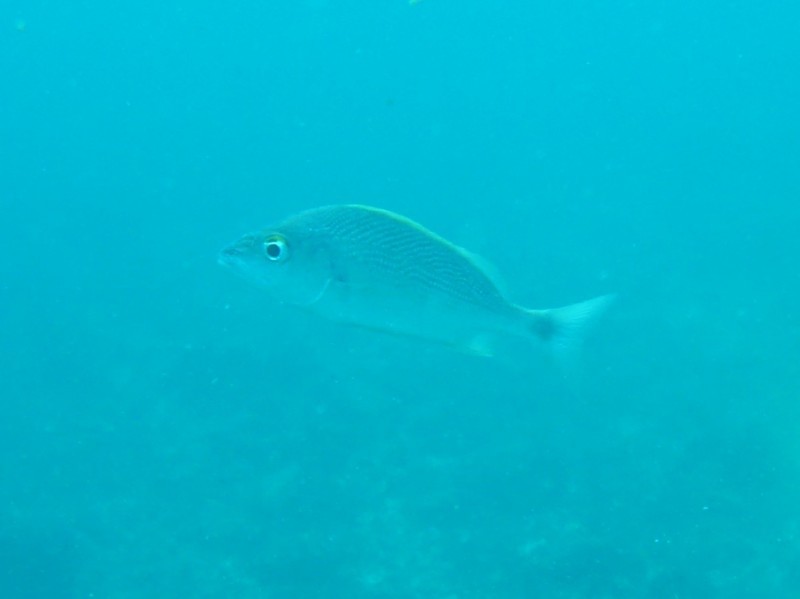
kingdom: Animalia
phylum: Chordata
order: Perciformes
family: Haemulidae
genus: Haemulon
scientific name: Haemulon steindachneri
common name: Latin grunt
